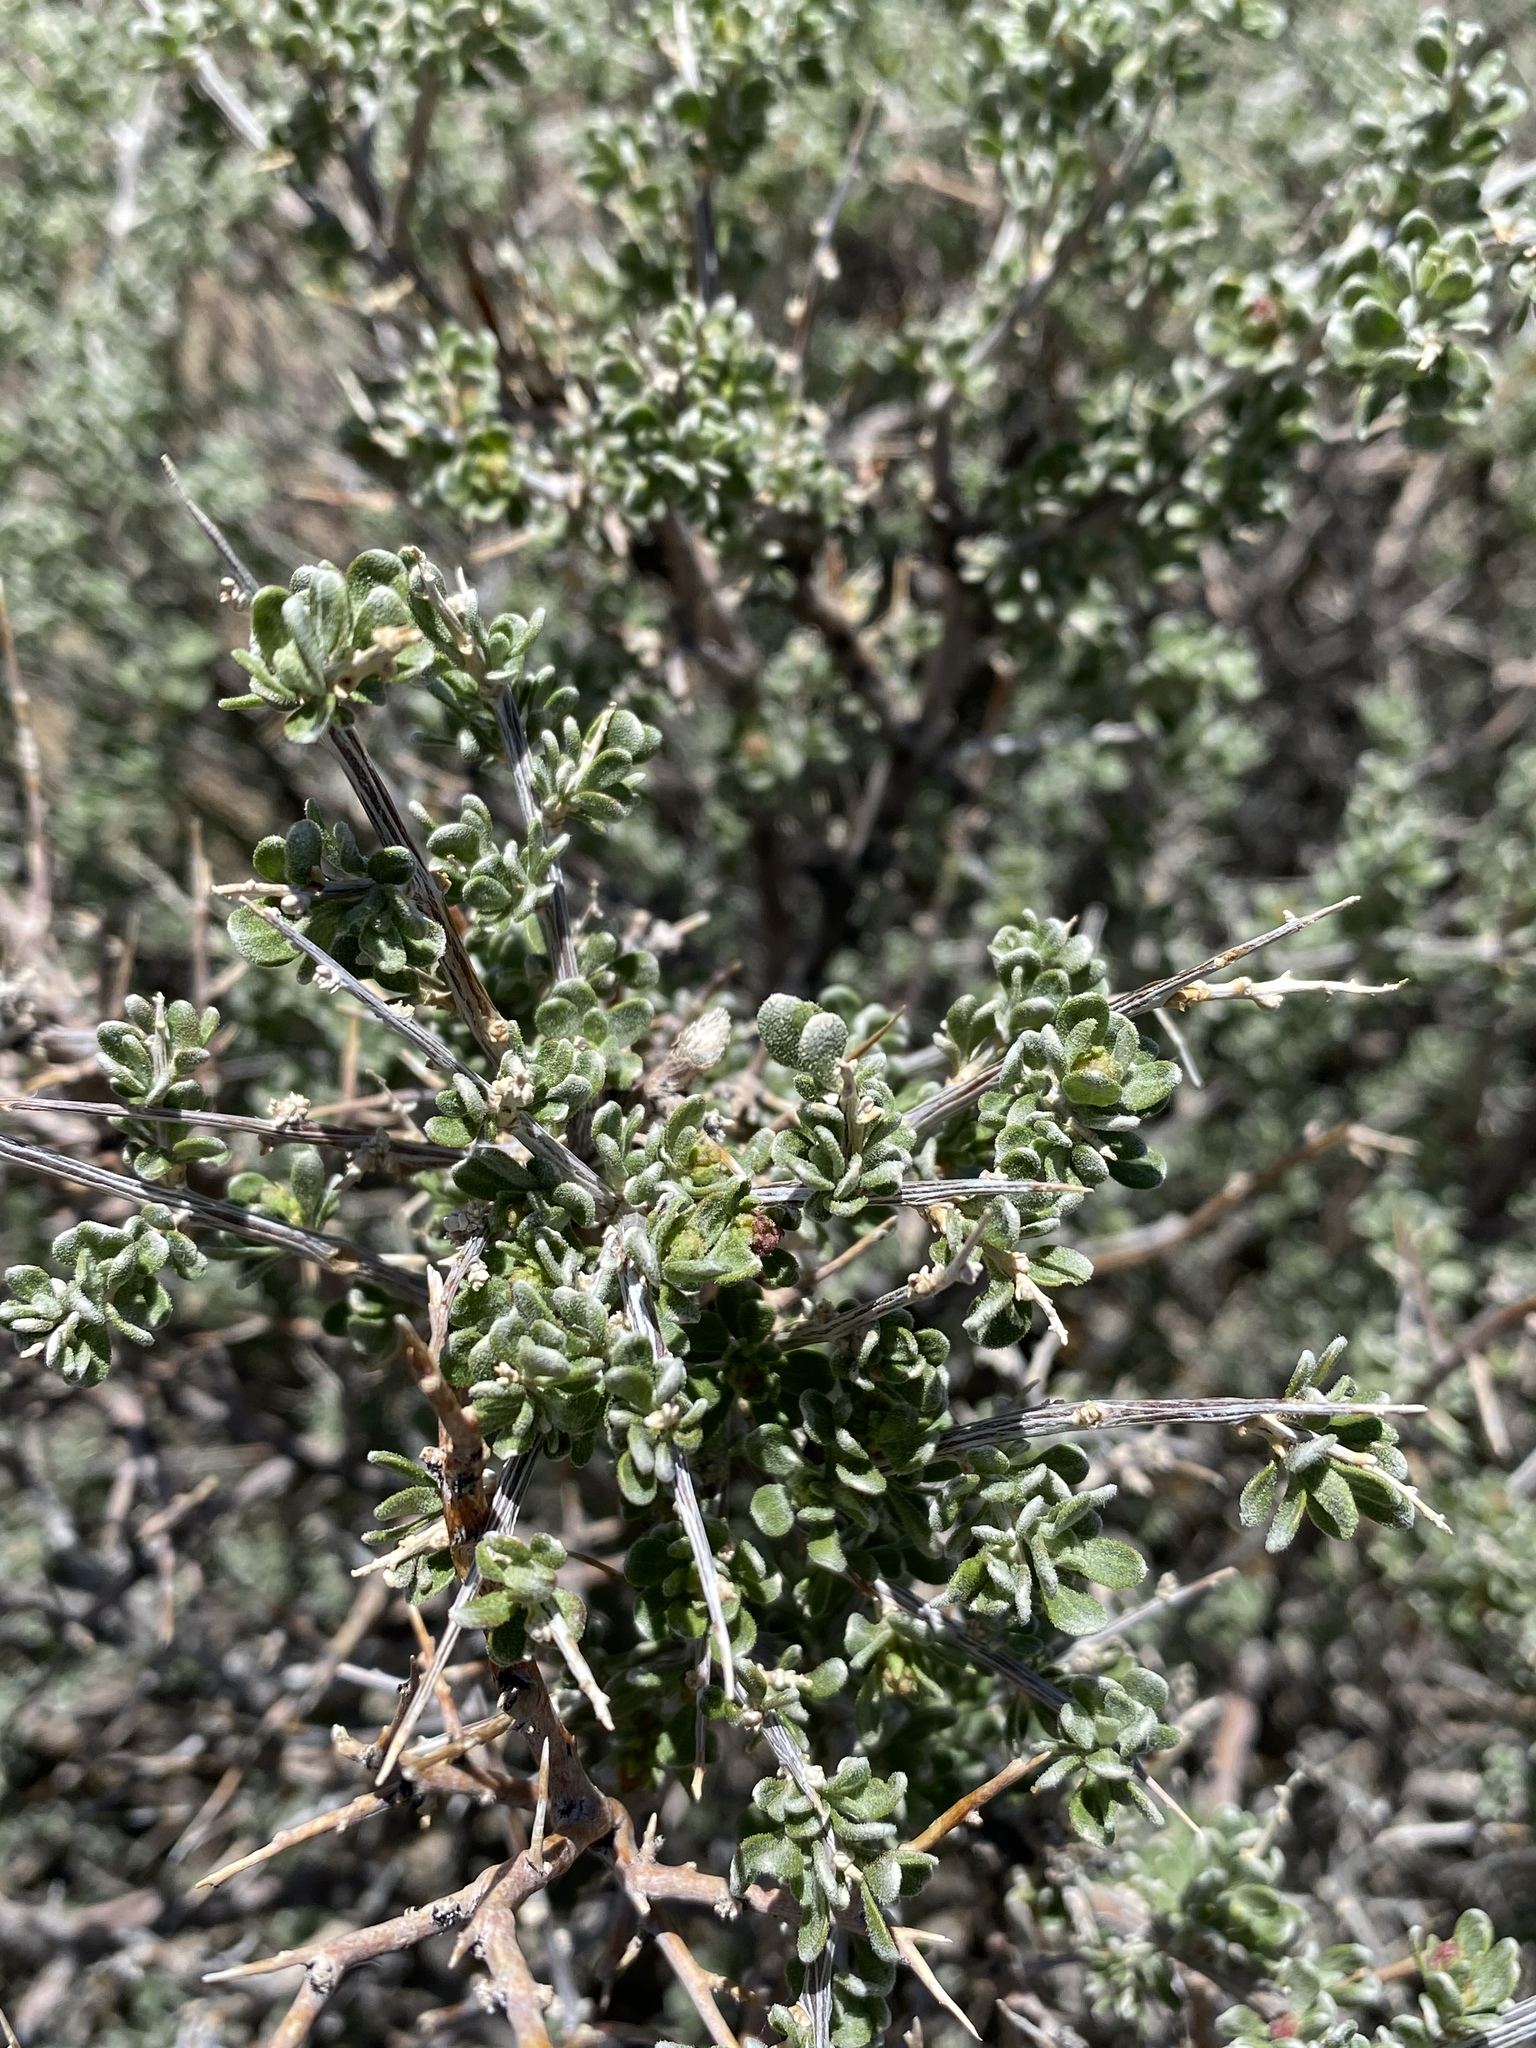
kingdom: Plantae
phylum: Tracheophyta
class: Magnoliopsida
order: Caryophyllales
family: Amaranthaceae
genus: Grayia
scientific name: Grayia spinosa
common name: Spiny hopsage
